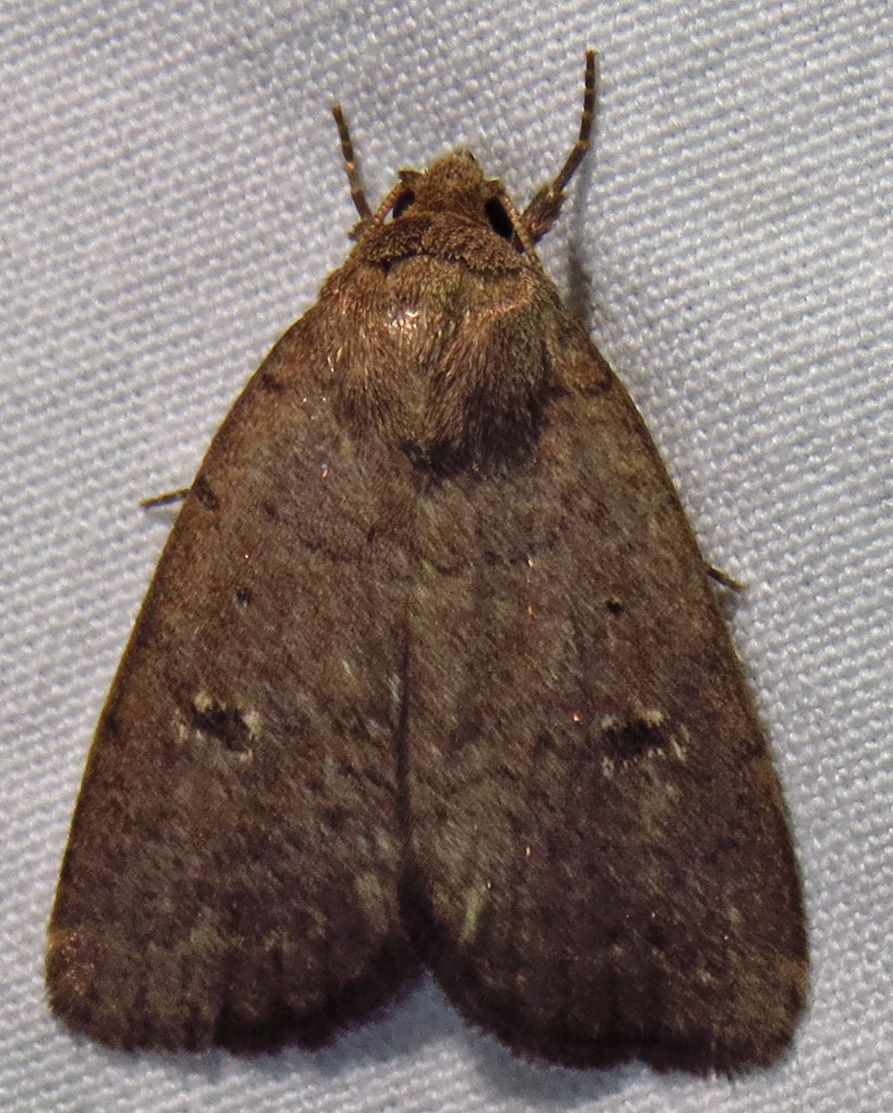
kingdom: Animalia
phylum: Arthropoda
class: Insecta
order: Lepidoptera
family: Noctuidae
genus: Athetis
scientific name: Athetis tarda
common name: Slowpoke moth
